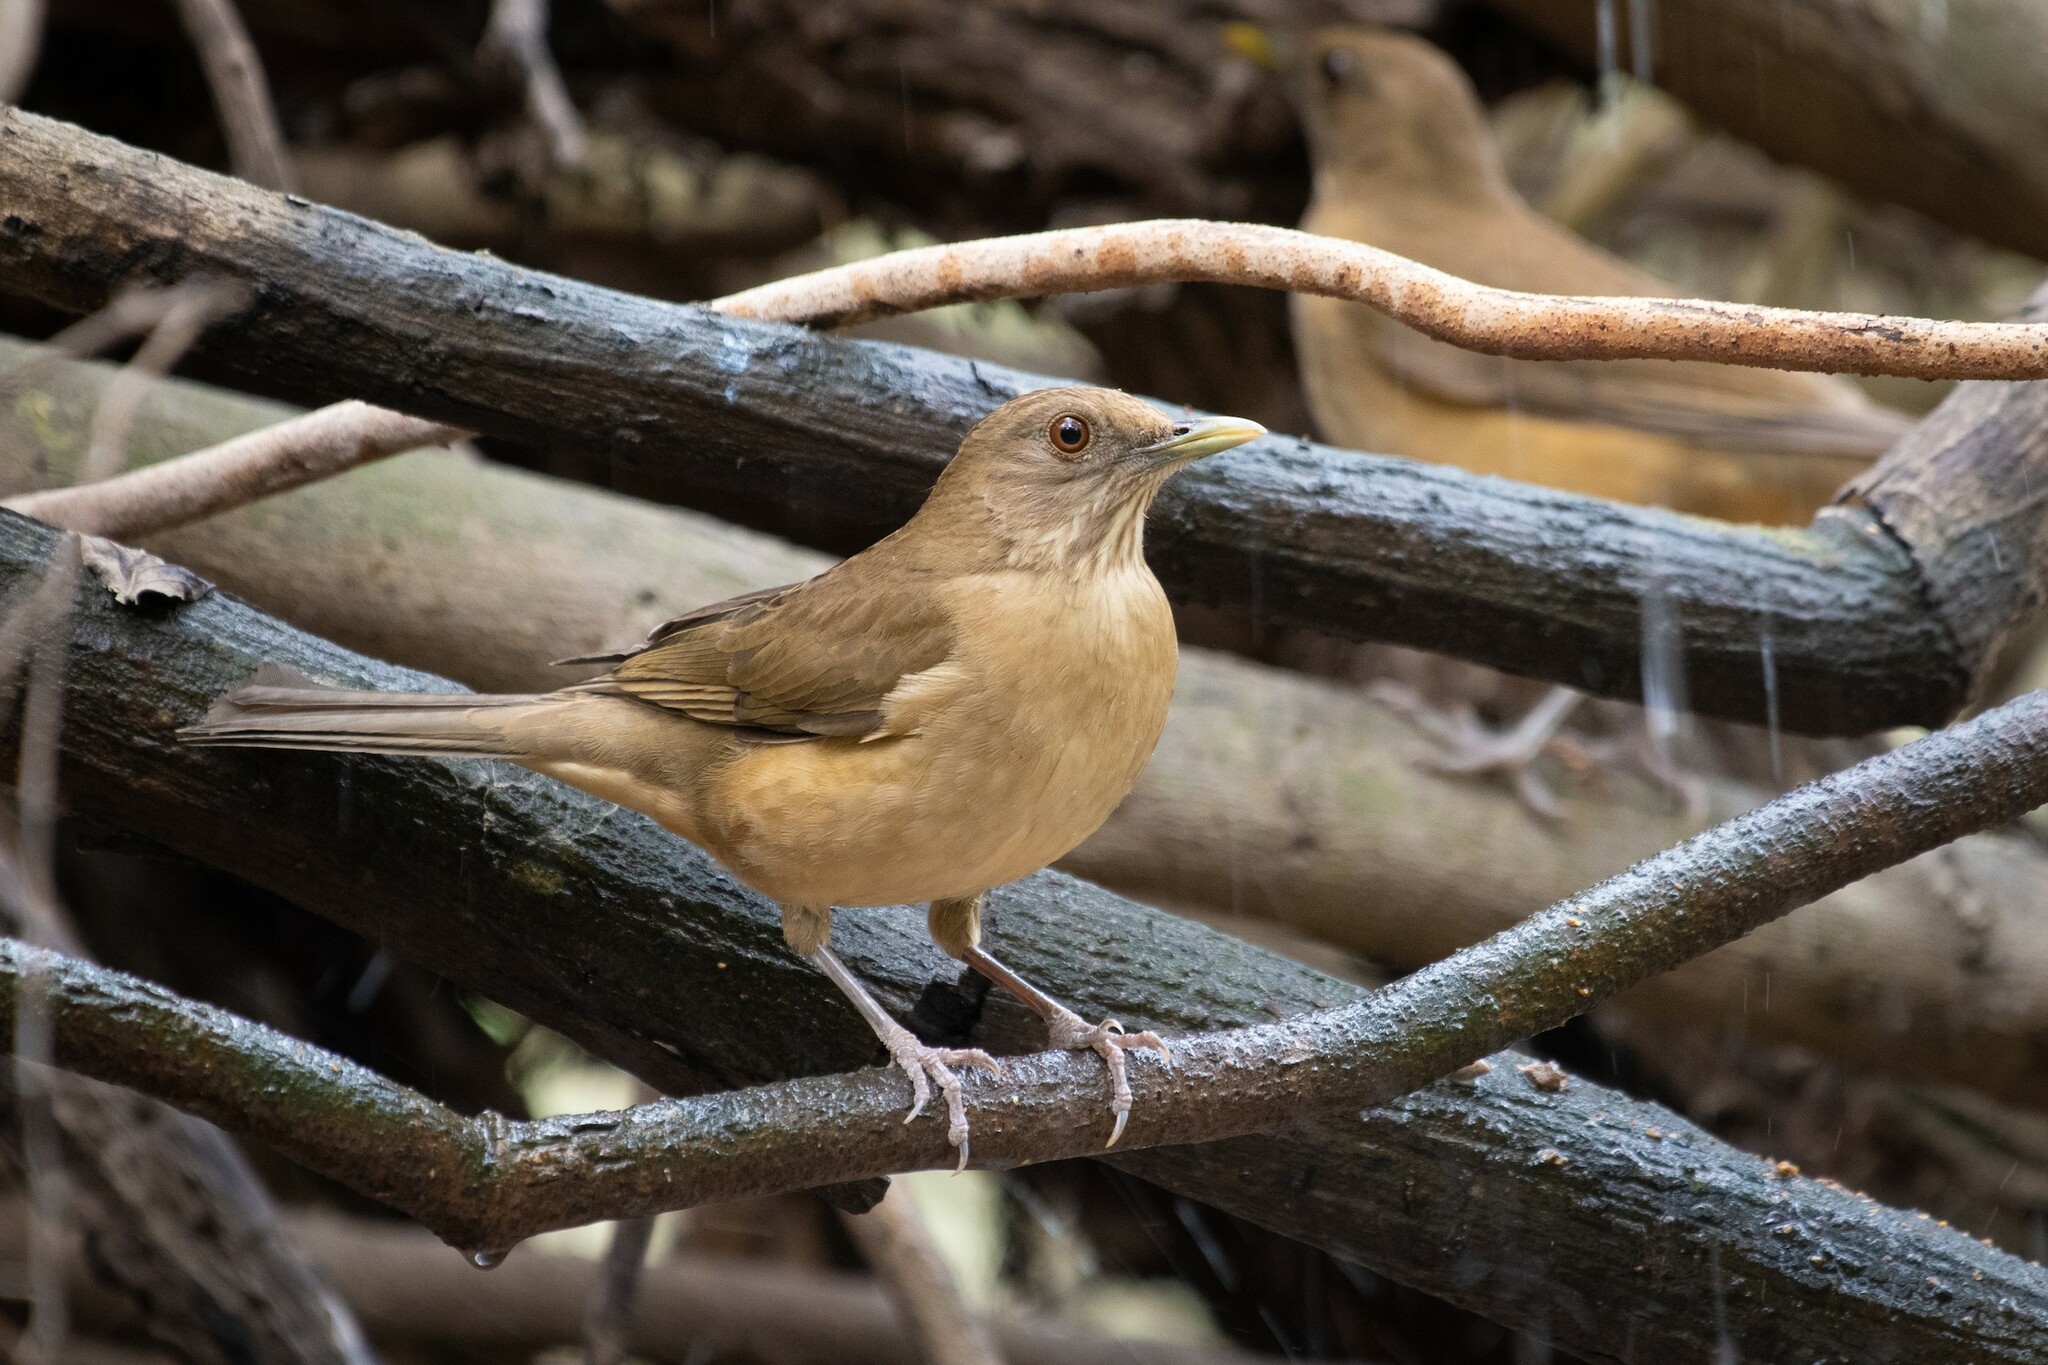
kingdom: Animalia
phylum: Chordata
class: Aves
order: Passeriformes
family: Turdidae
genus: Turdus
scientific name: Turdus grayi
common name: Clay-colored thrush
